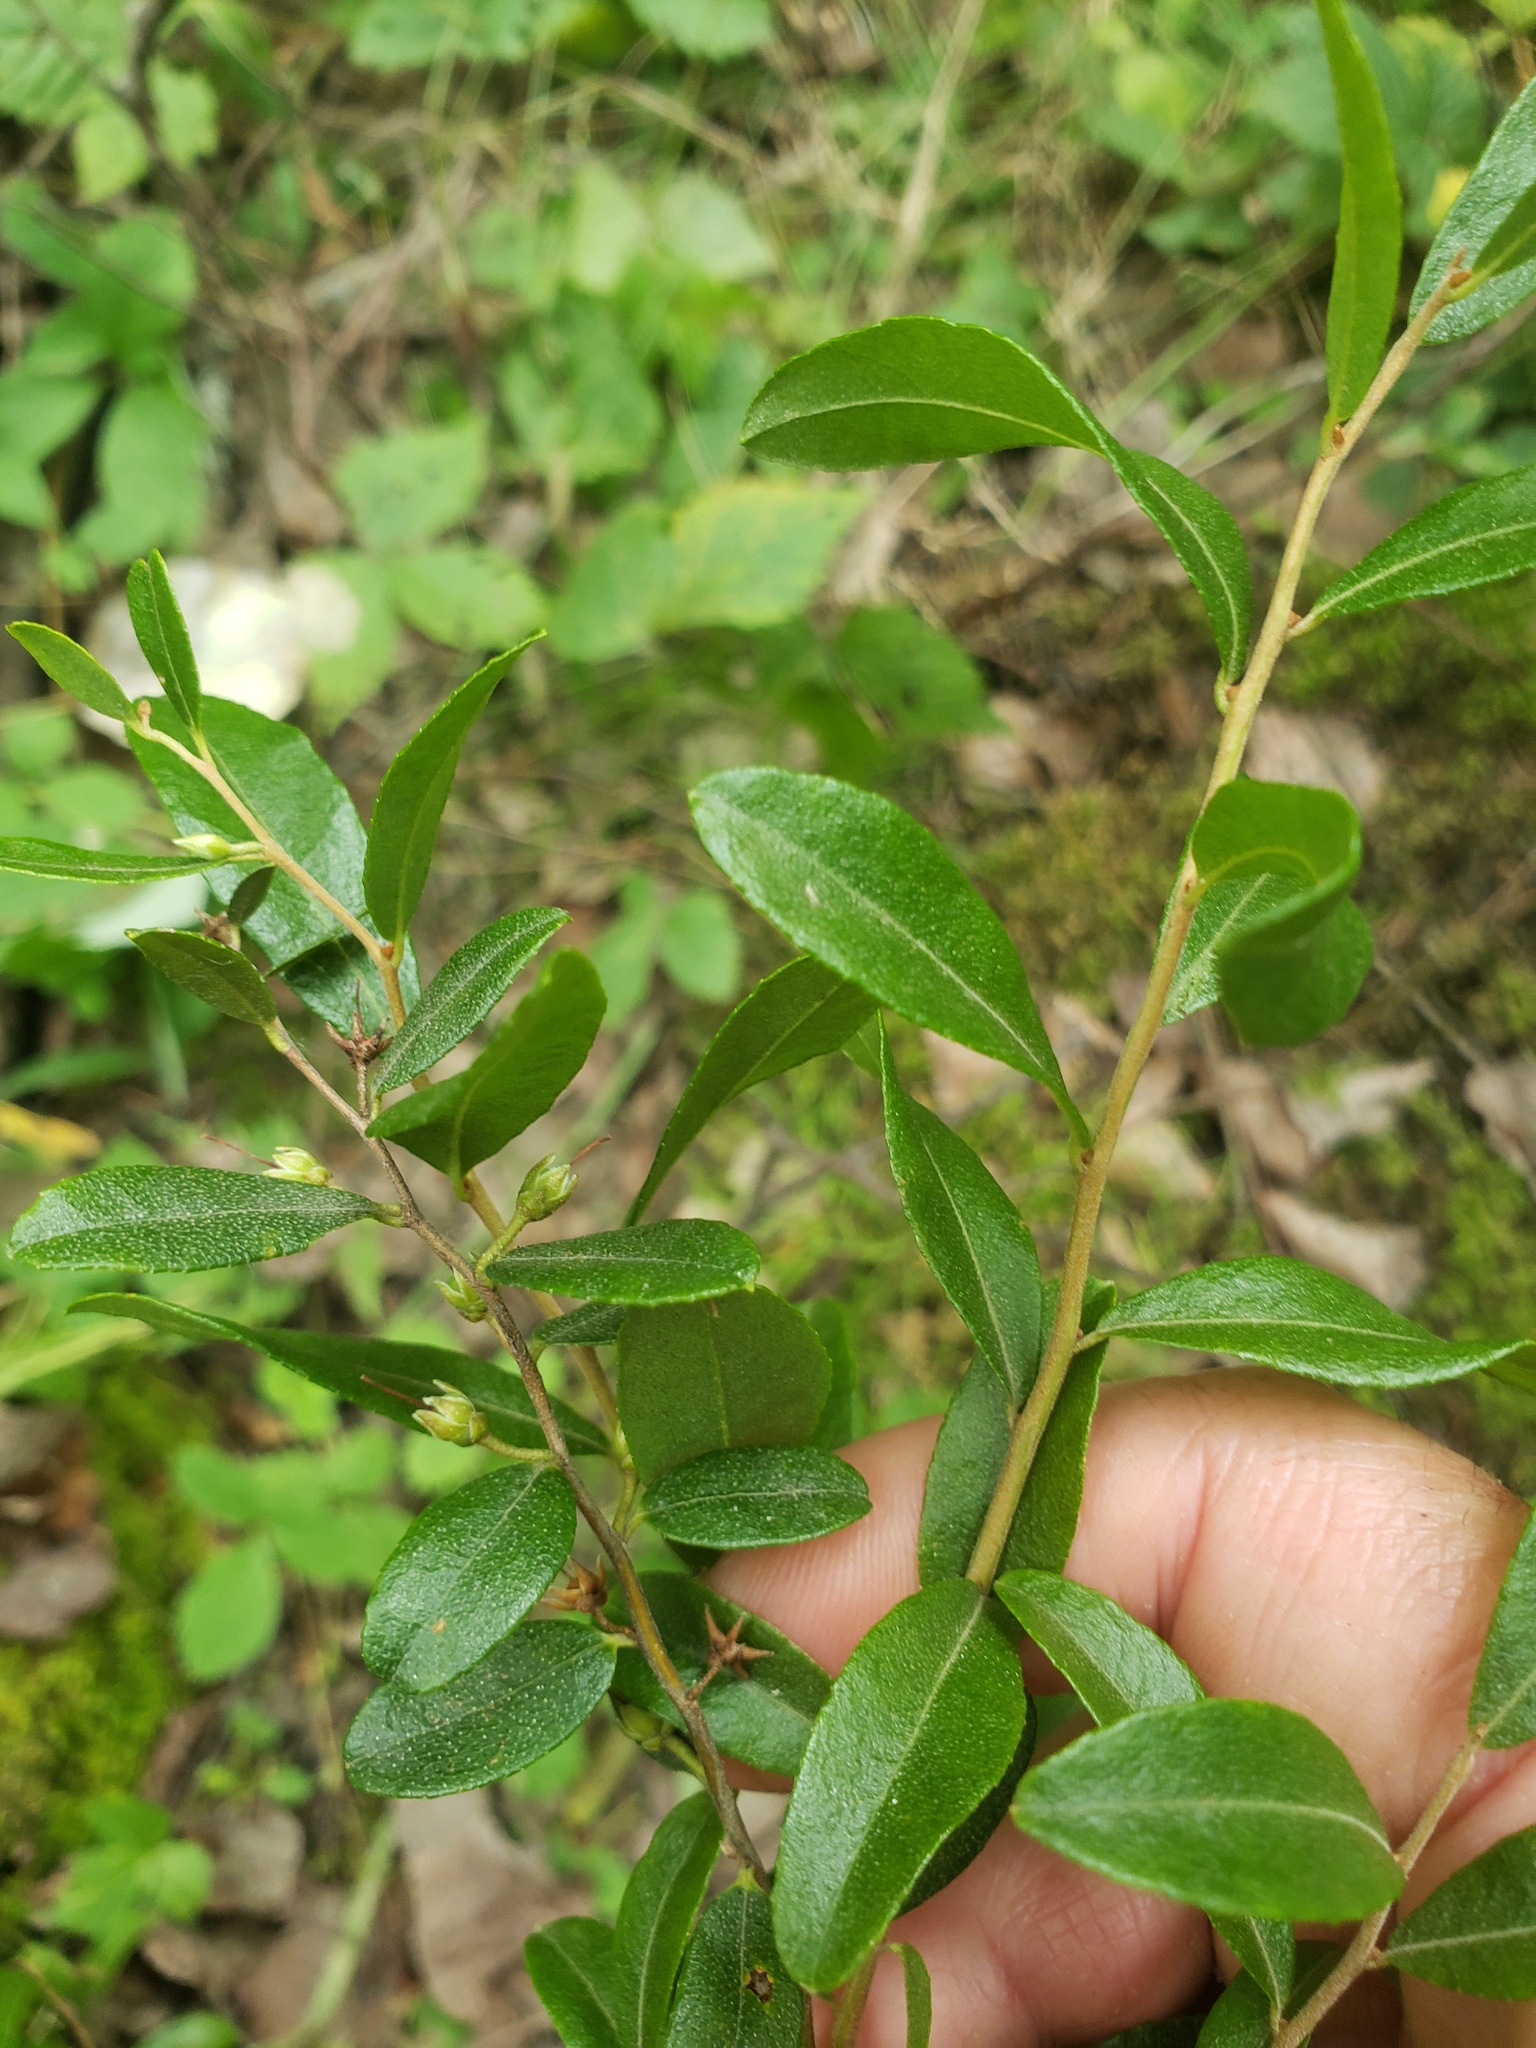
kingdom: Plantae
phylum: Tracheophyta
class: Magnoliopsida
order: Ericales
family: Ericaceae
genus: Chamaedaphne
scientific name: Chamaedaphne calyculata
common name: Leatherleaf
